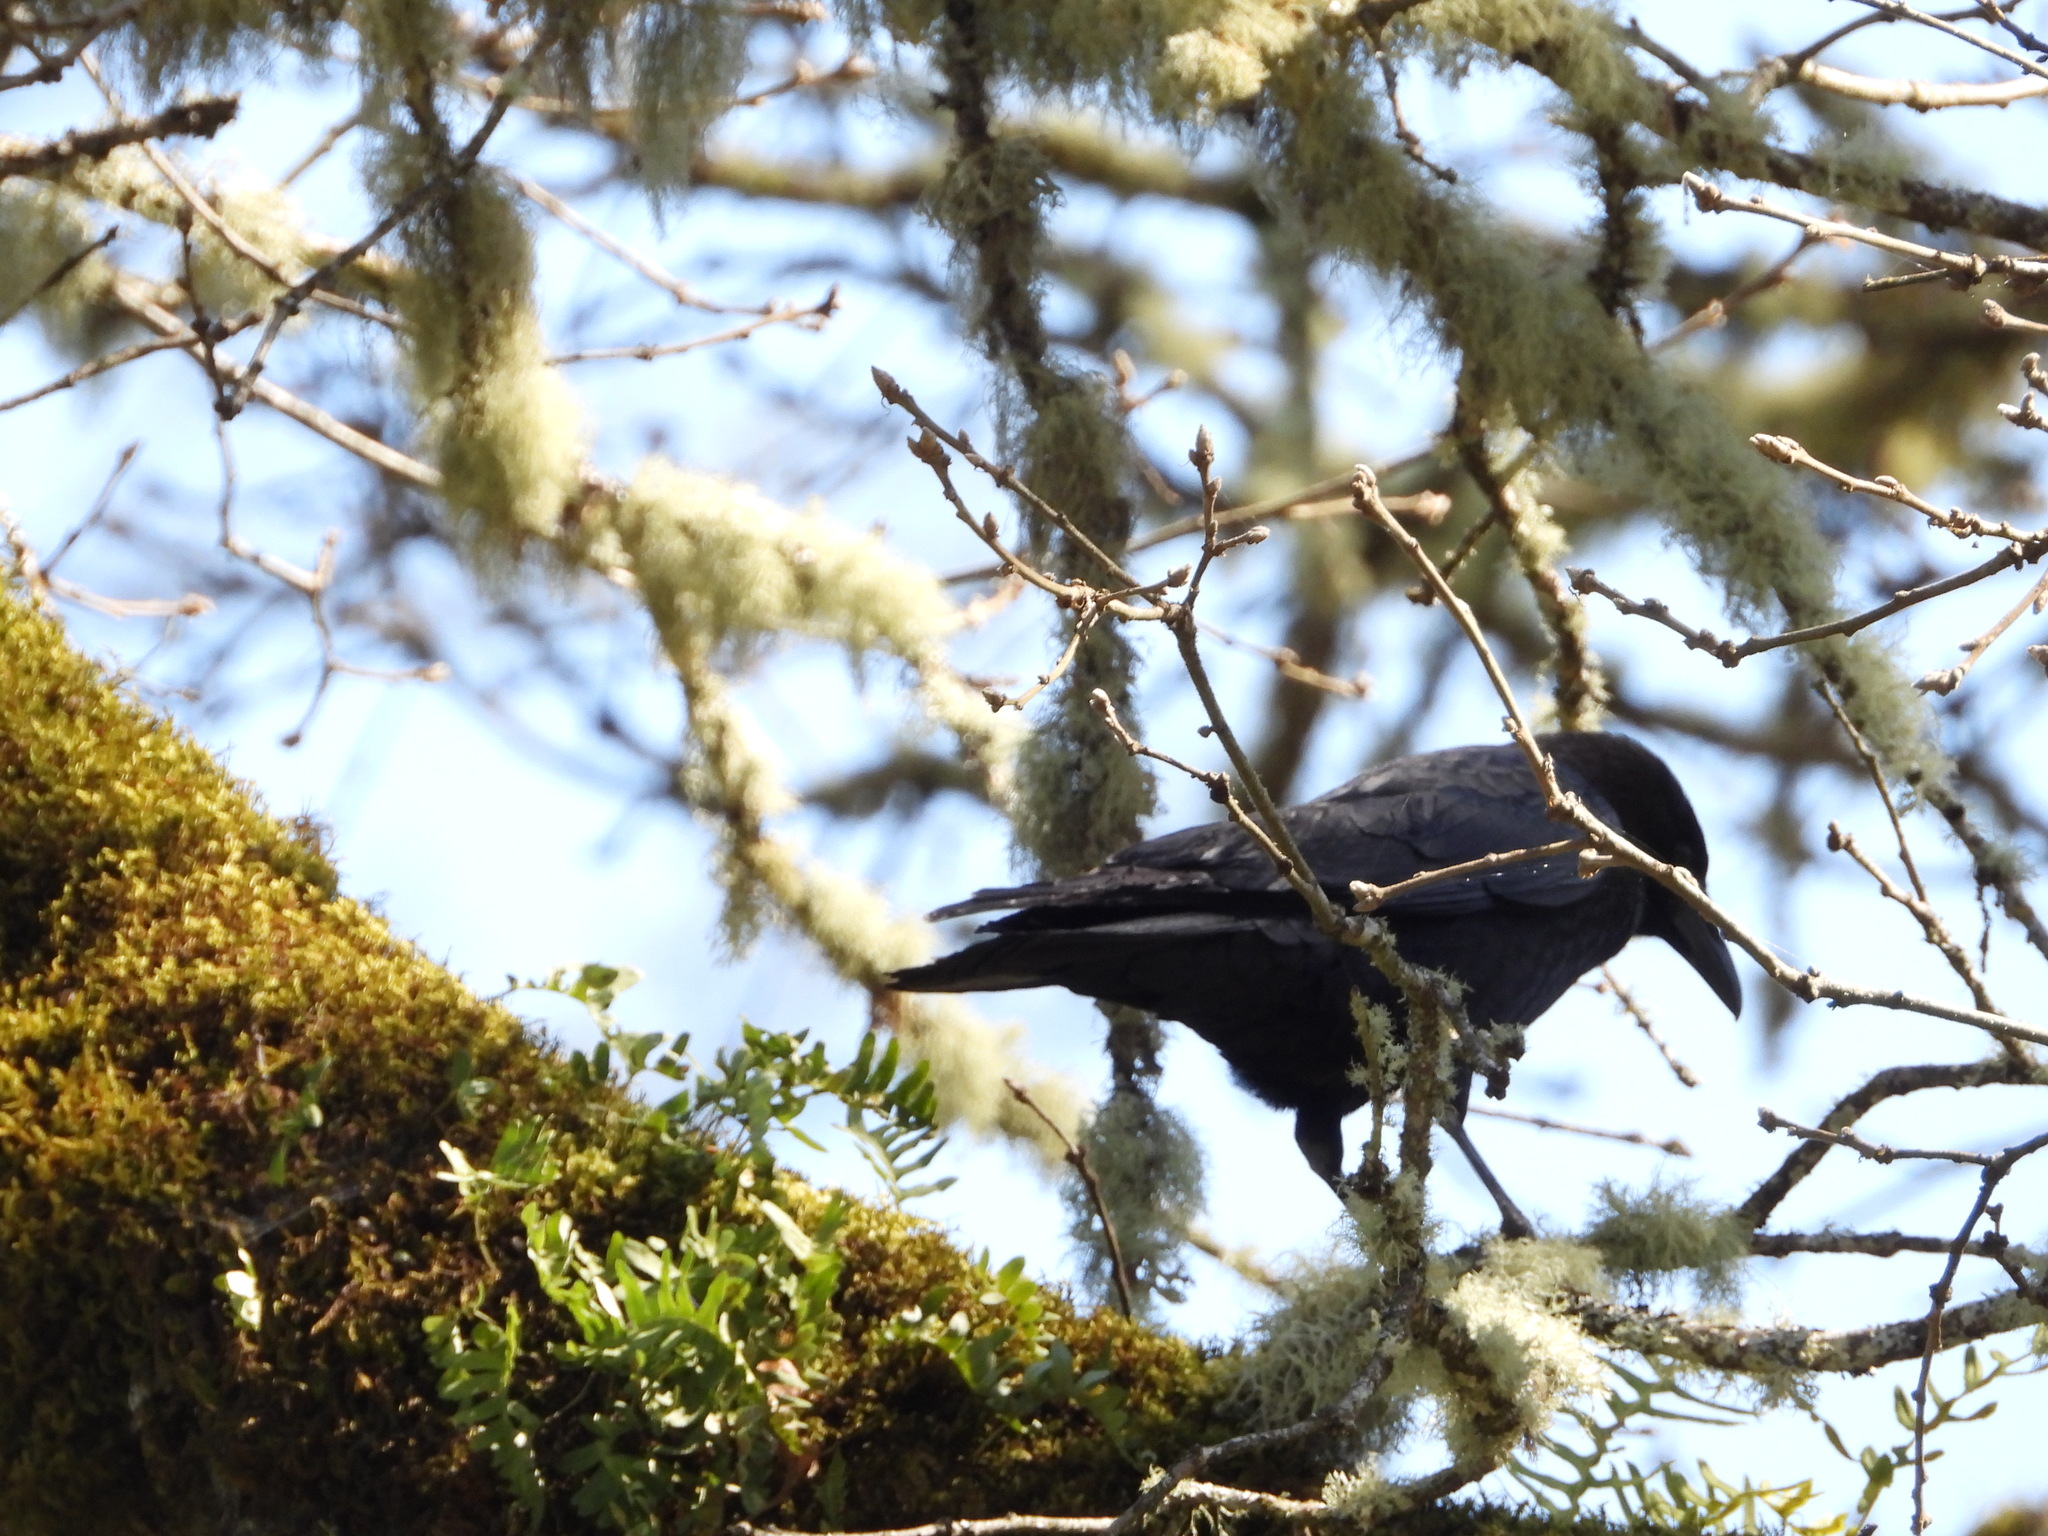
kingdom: Animalia
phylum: Chordata
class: Aves
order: Passeriformes
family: Corvidae
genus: Corvus
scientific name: Corvus brachyrhynchos
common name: American crow
